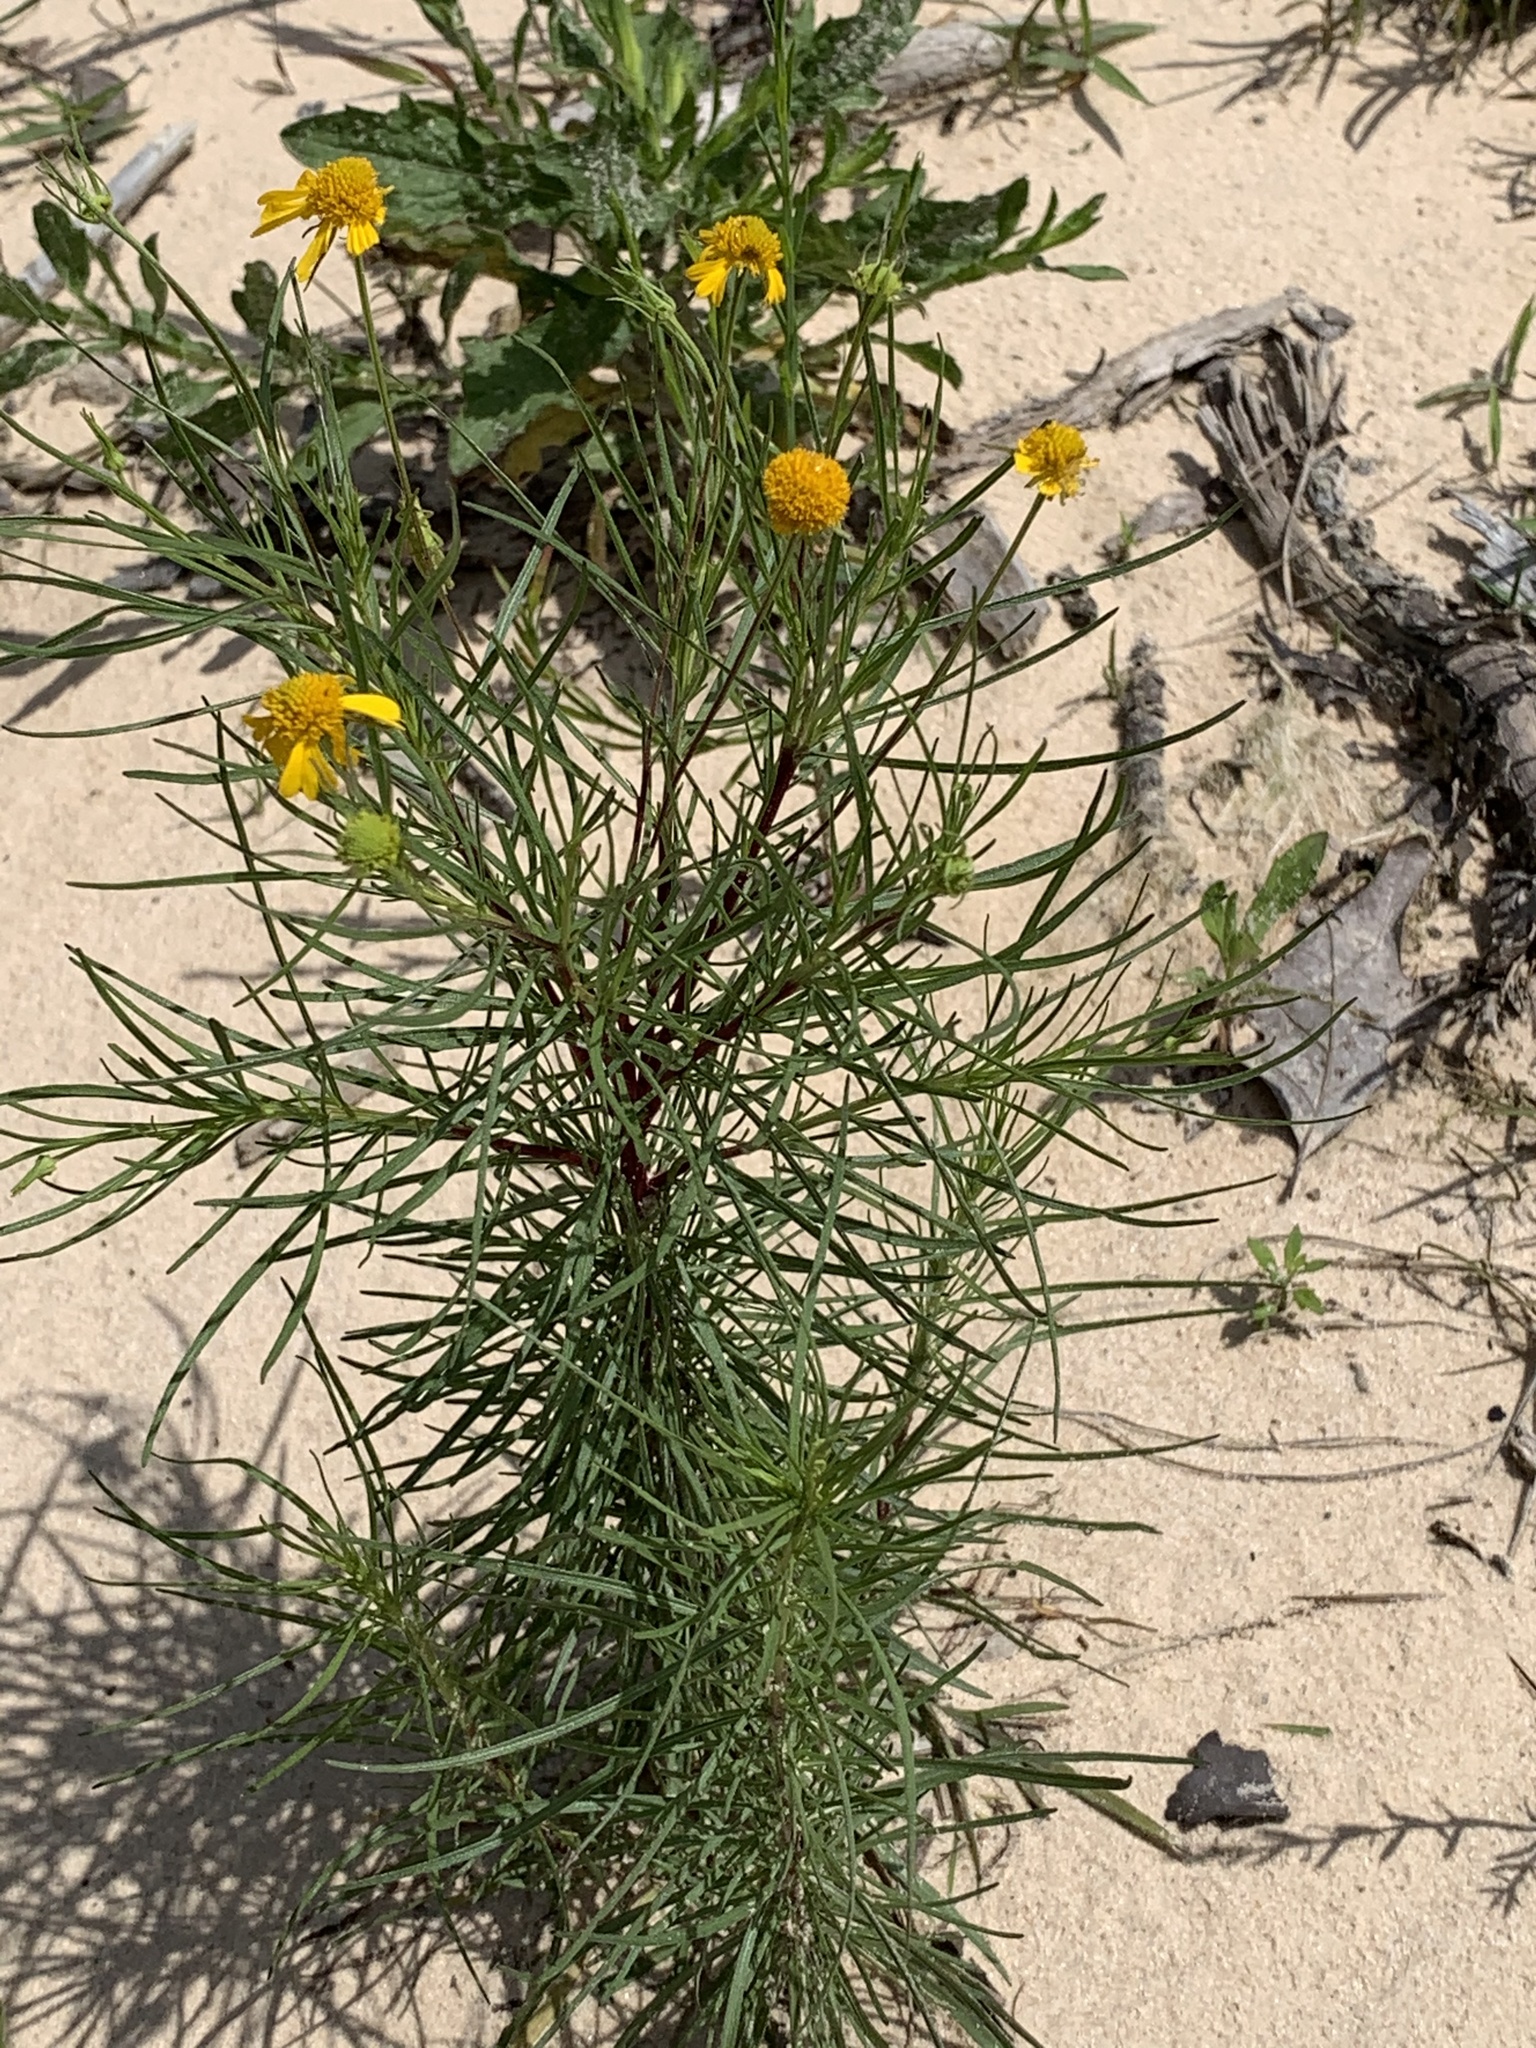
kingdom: Plantae
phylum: Tracheophyta
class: Magnoliopsida
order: Asterales
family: Asteraceae
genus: Helenium
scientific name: Helenium amarum
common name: Bitter sneezeweed
